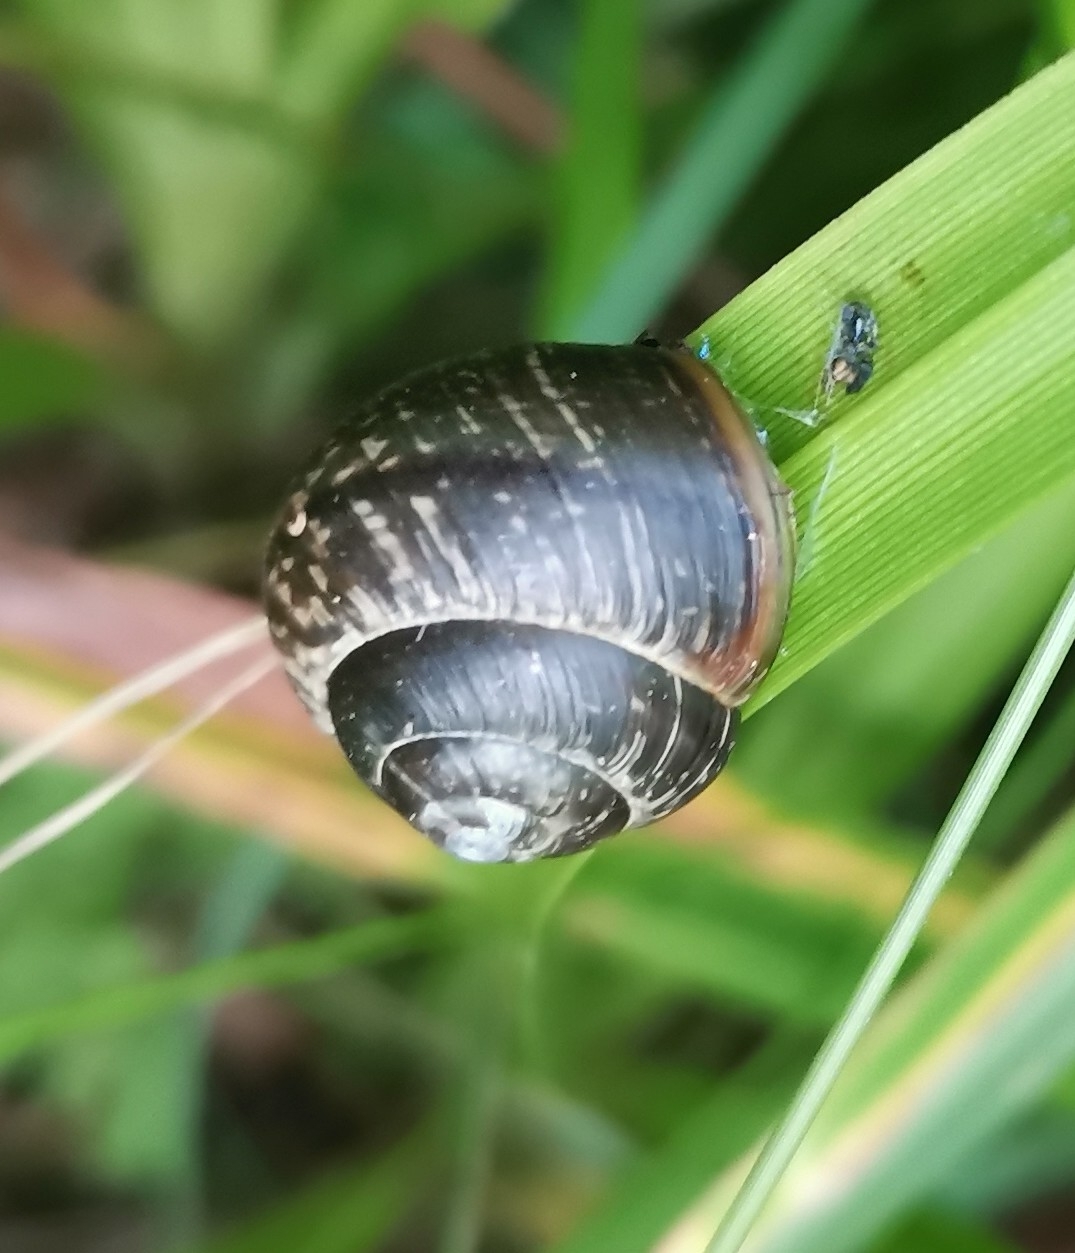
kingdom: Animalia
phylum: Mollusca
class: Gastropoda
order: Stylommatophora
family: Helicidae
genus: Arianta
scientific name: Arianta arbustorum
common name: Copse snail
